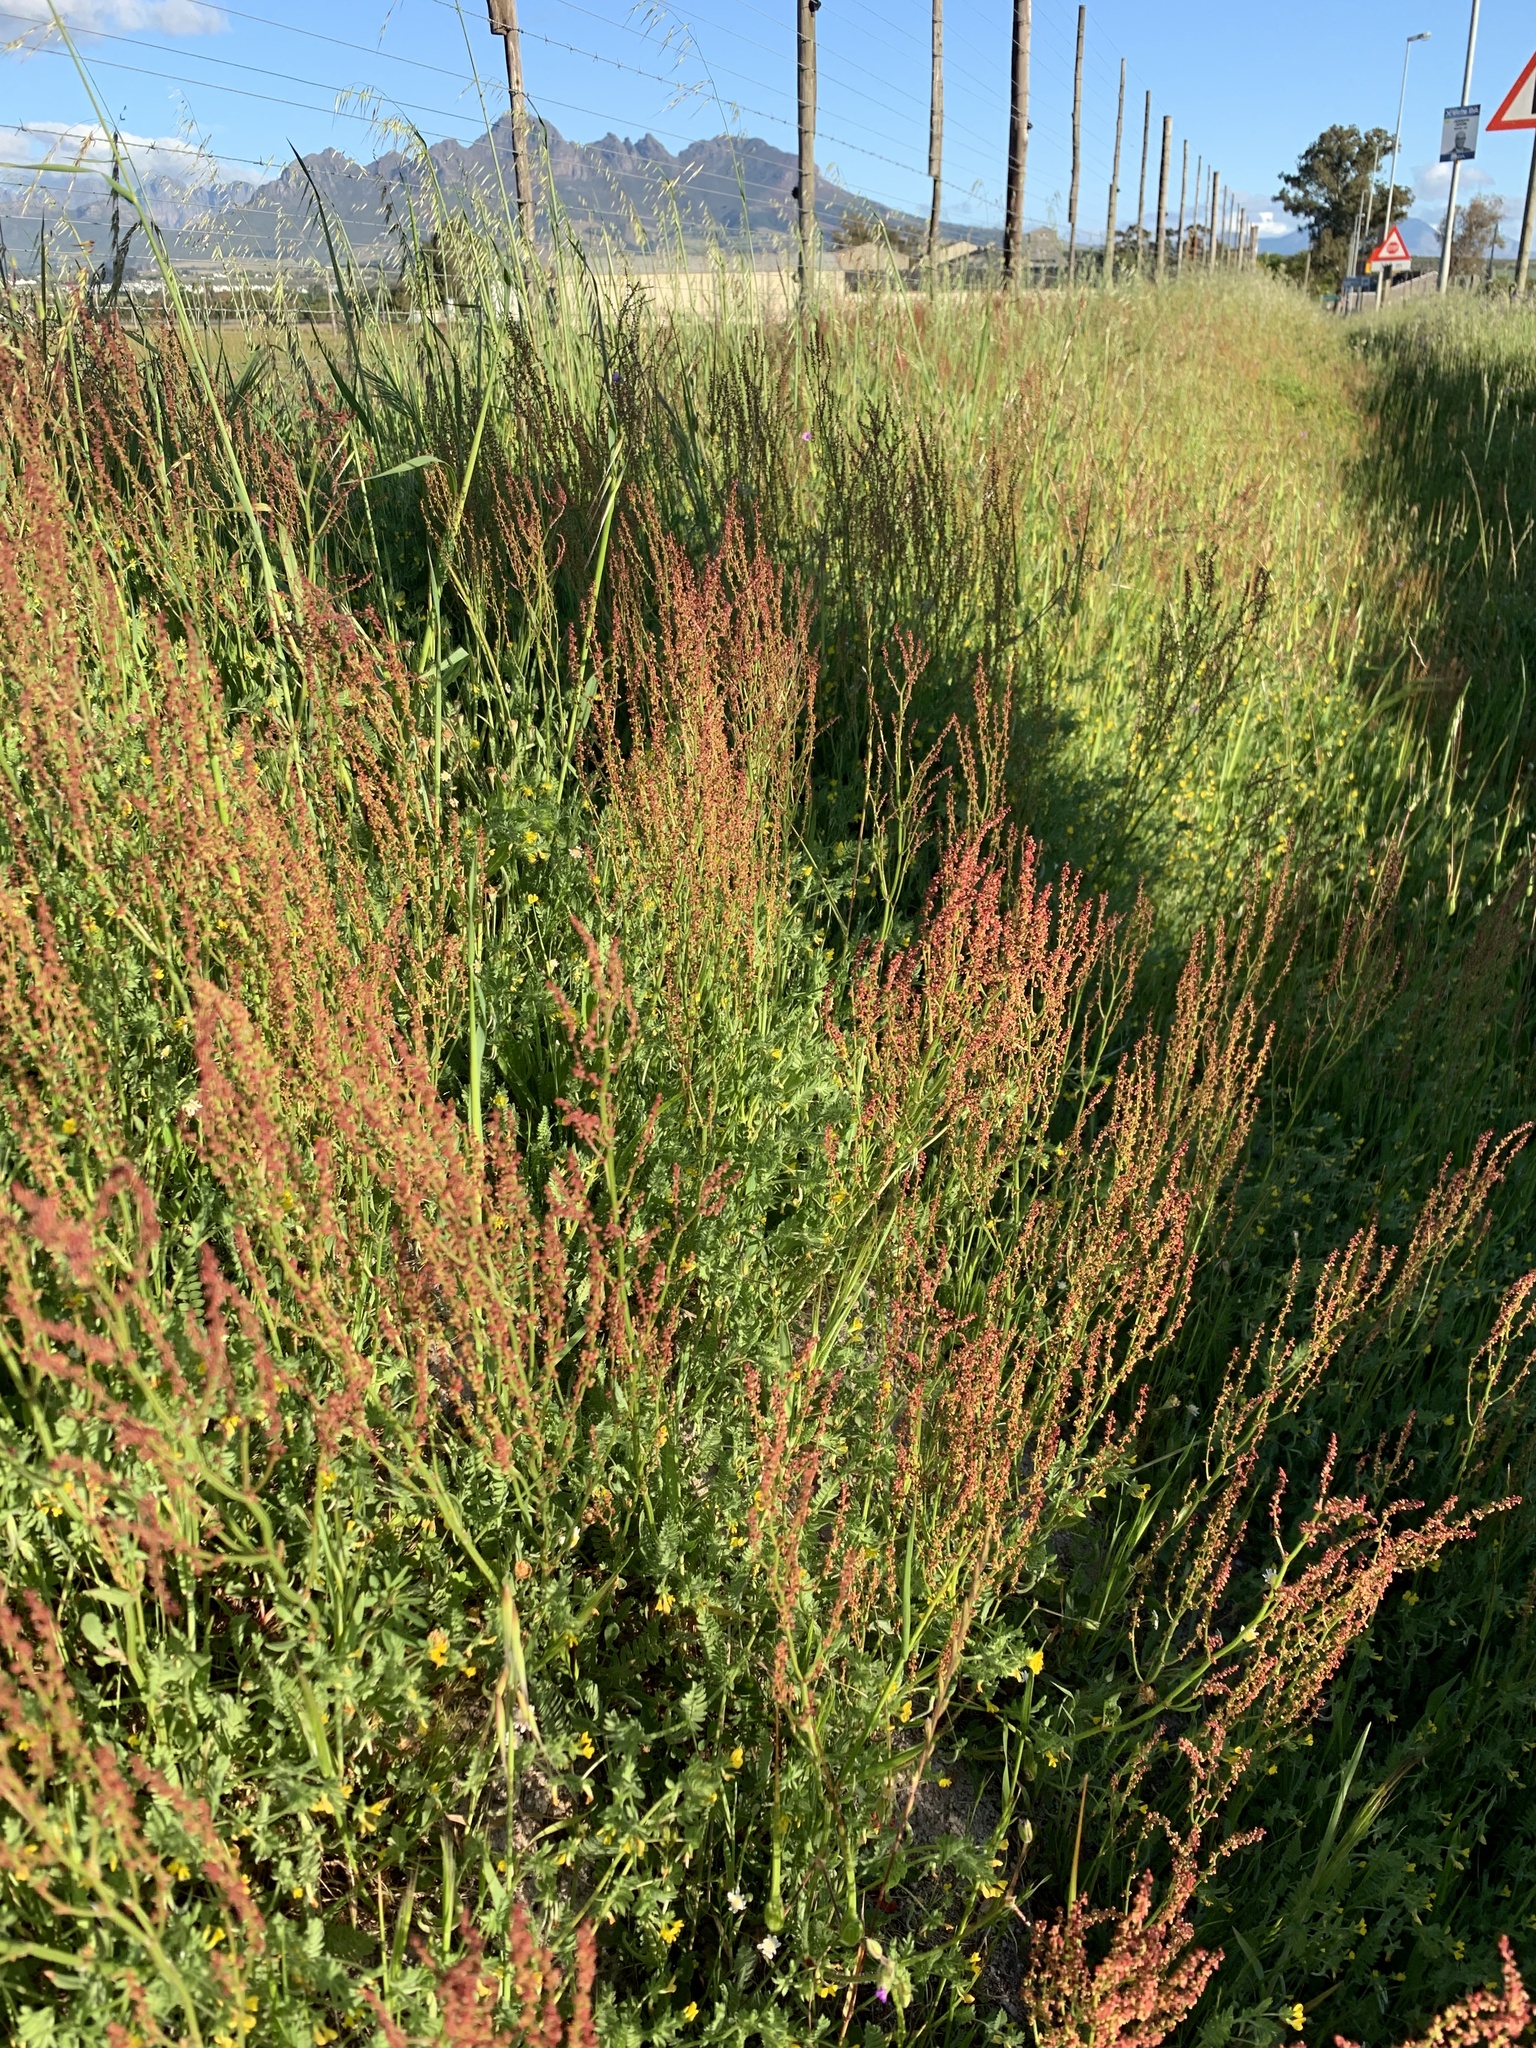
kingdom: Plantae
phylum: Tracheophyta
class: Magnoliopsida
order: Caryophyllales
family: Polygonaceae
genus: Rumex
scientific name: Rumex acetosella
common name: Common sheep sorrel
